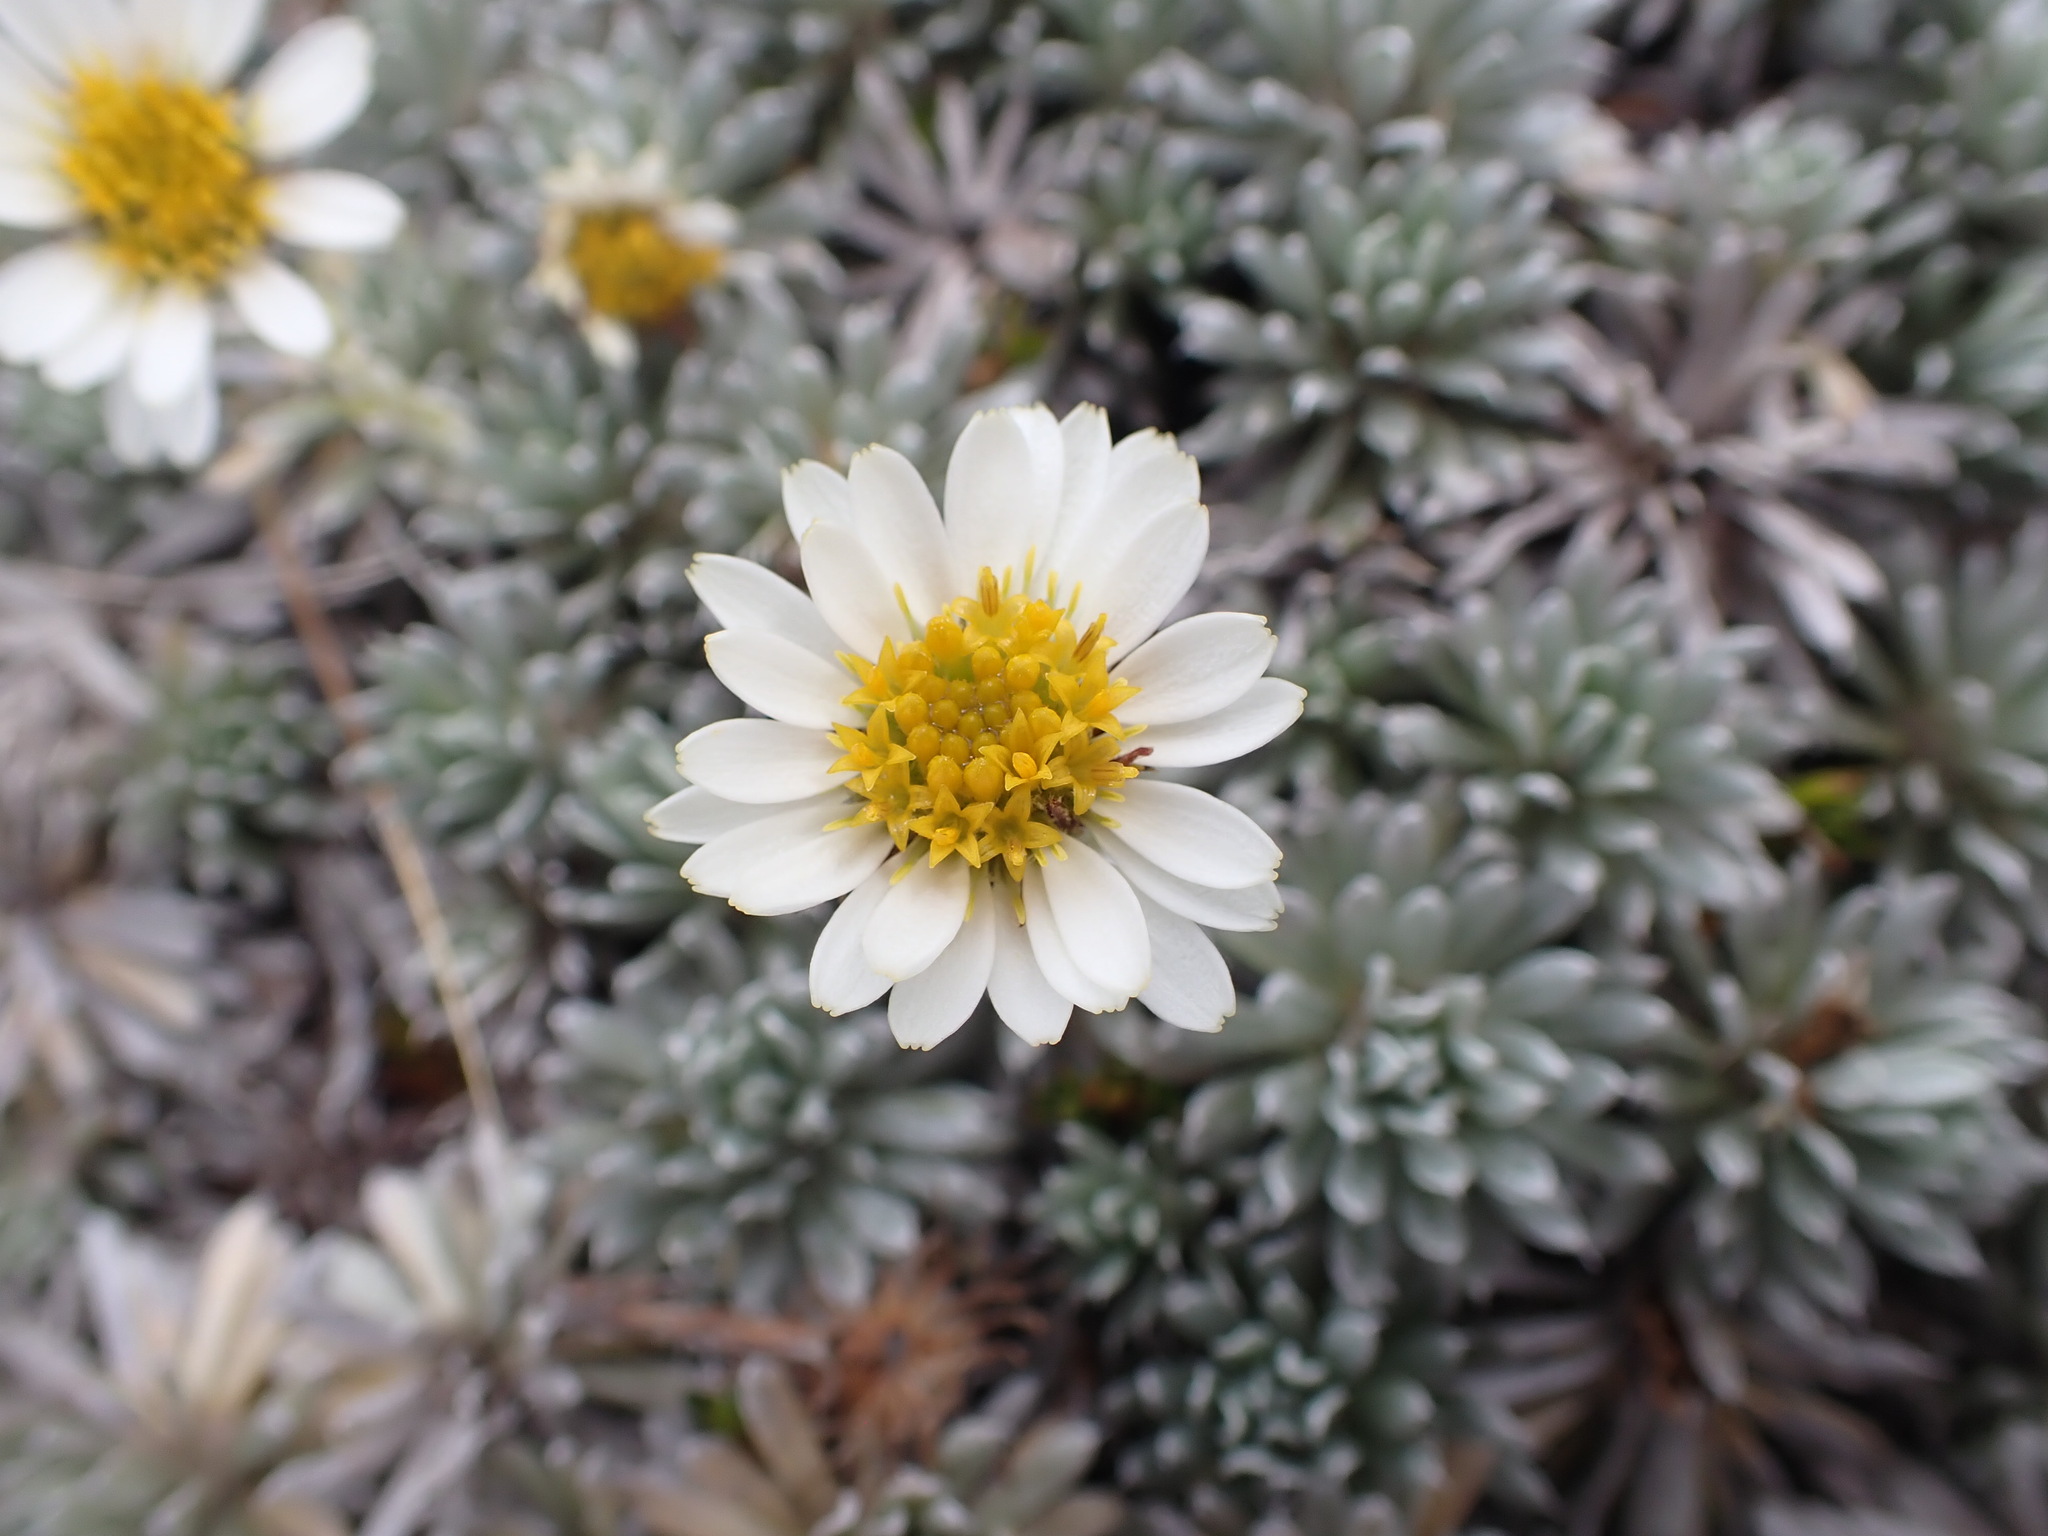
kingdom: Plantae
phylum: Tracheophyta
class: Magnoliopsida
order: Asterales
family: Asteraceae
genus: Celmisia
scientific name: Celmisia hectorii
